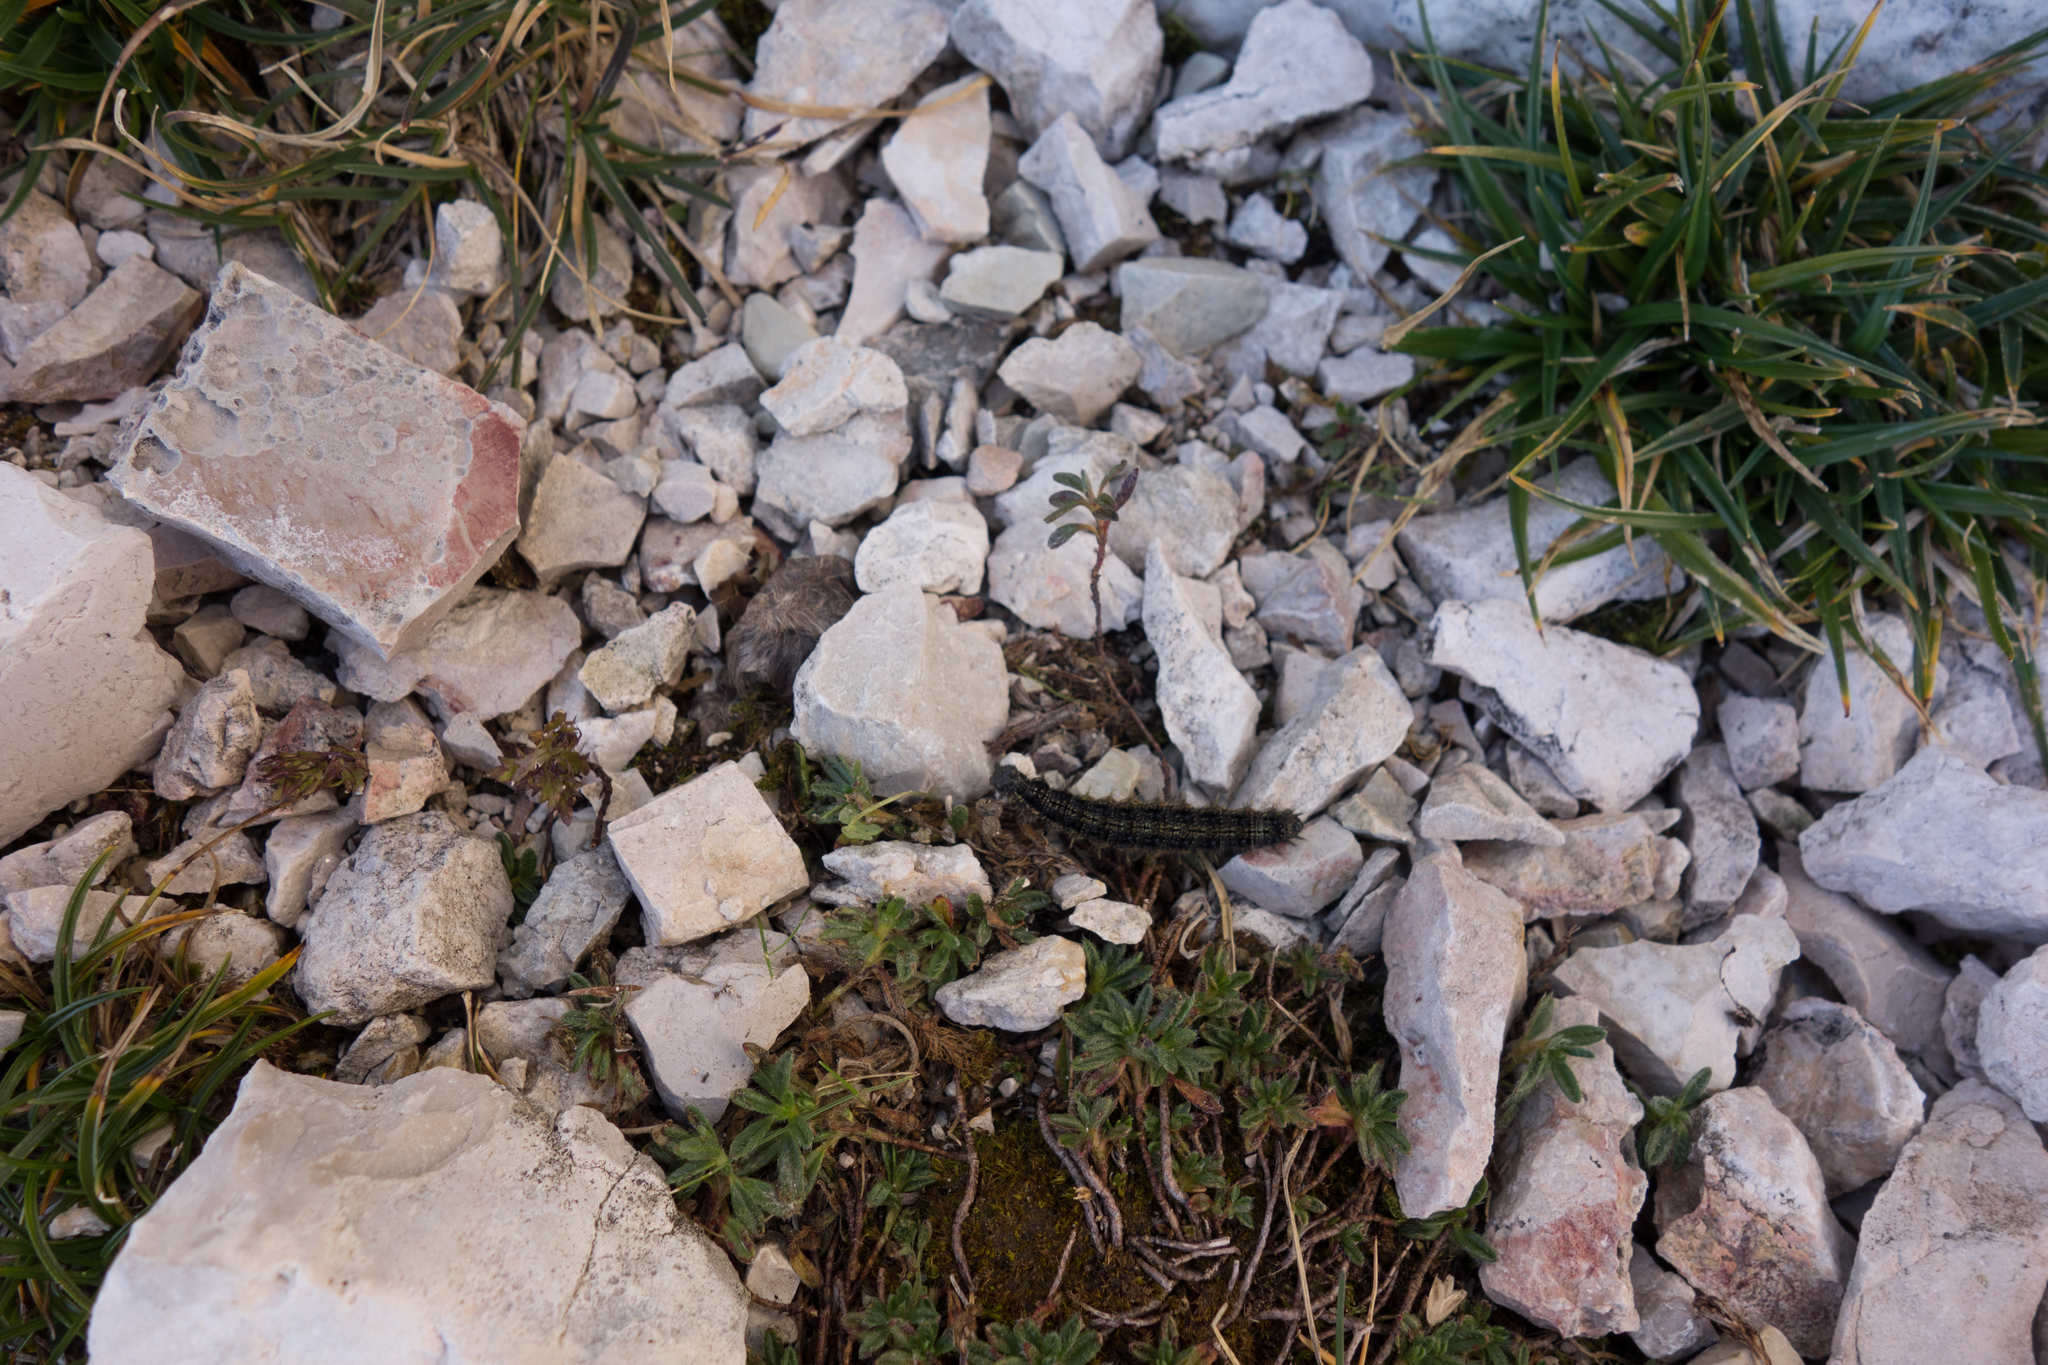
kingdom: Animalia
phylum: Arthropoda
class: Insecta
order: Lepidoptera
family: Nymphalidae
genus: Aglais
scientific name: Aglais urticae
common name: Small tortoiseshell
